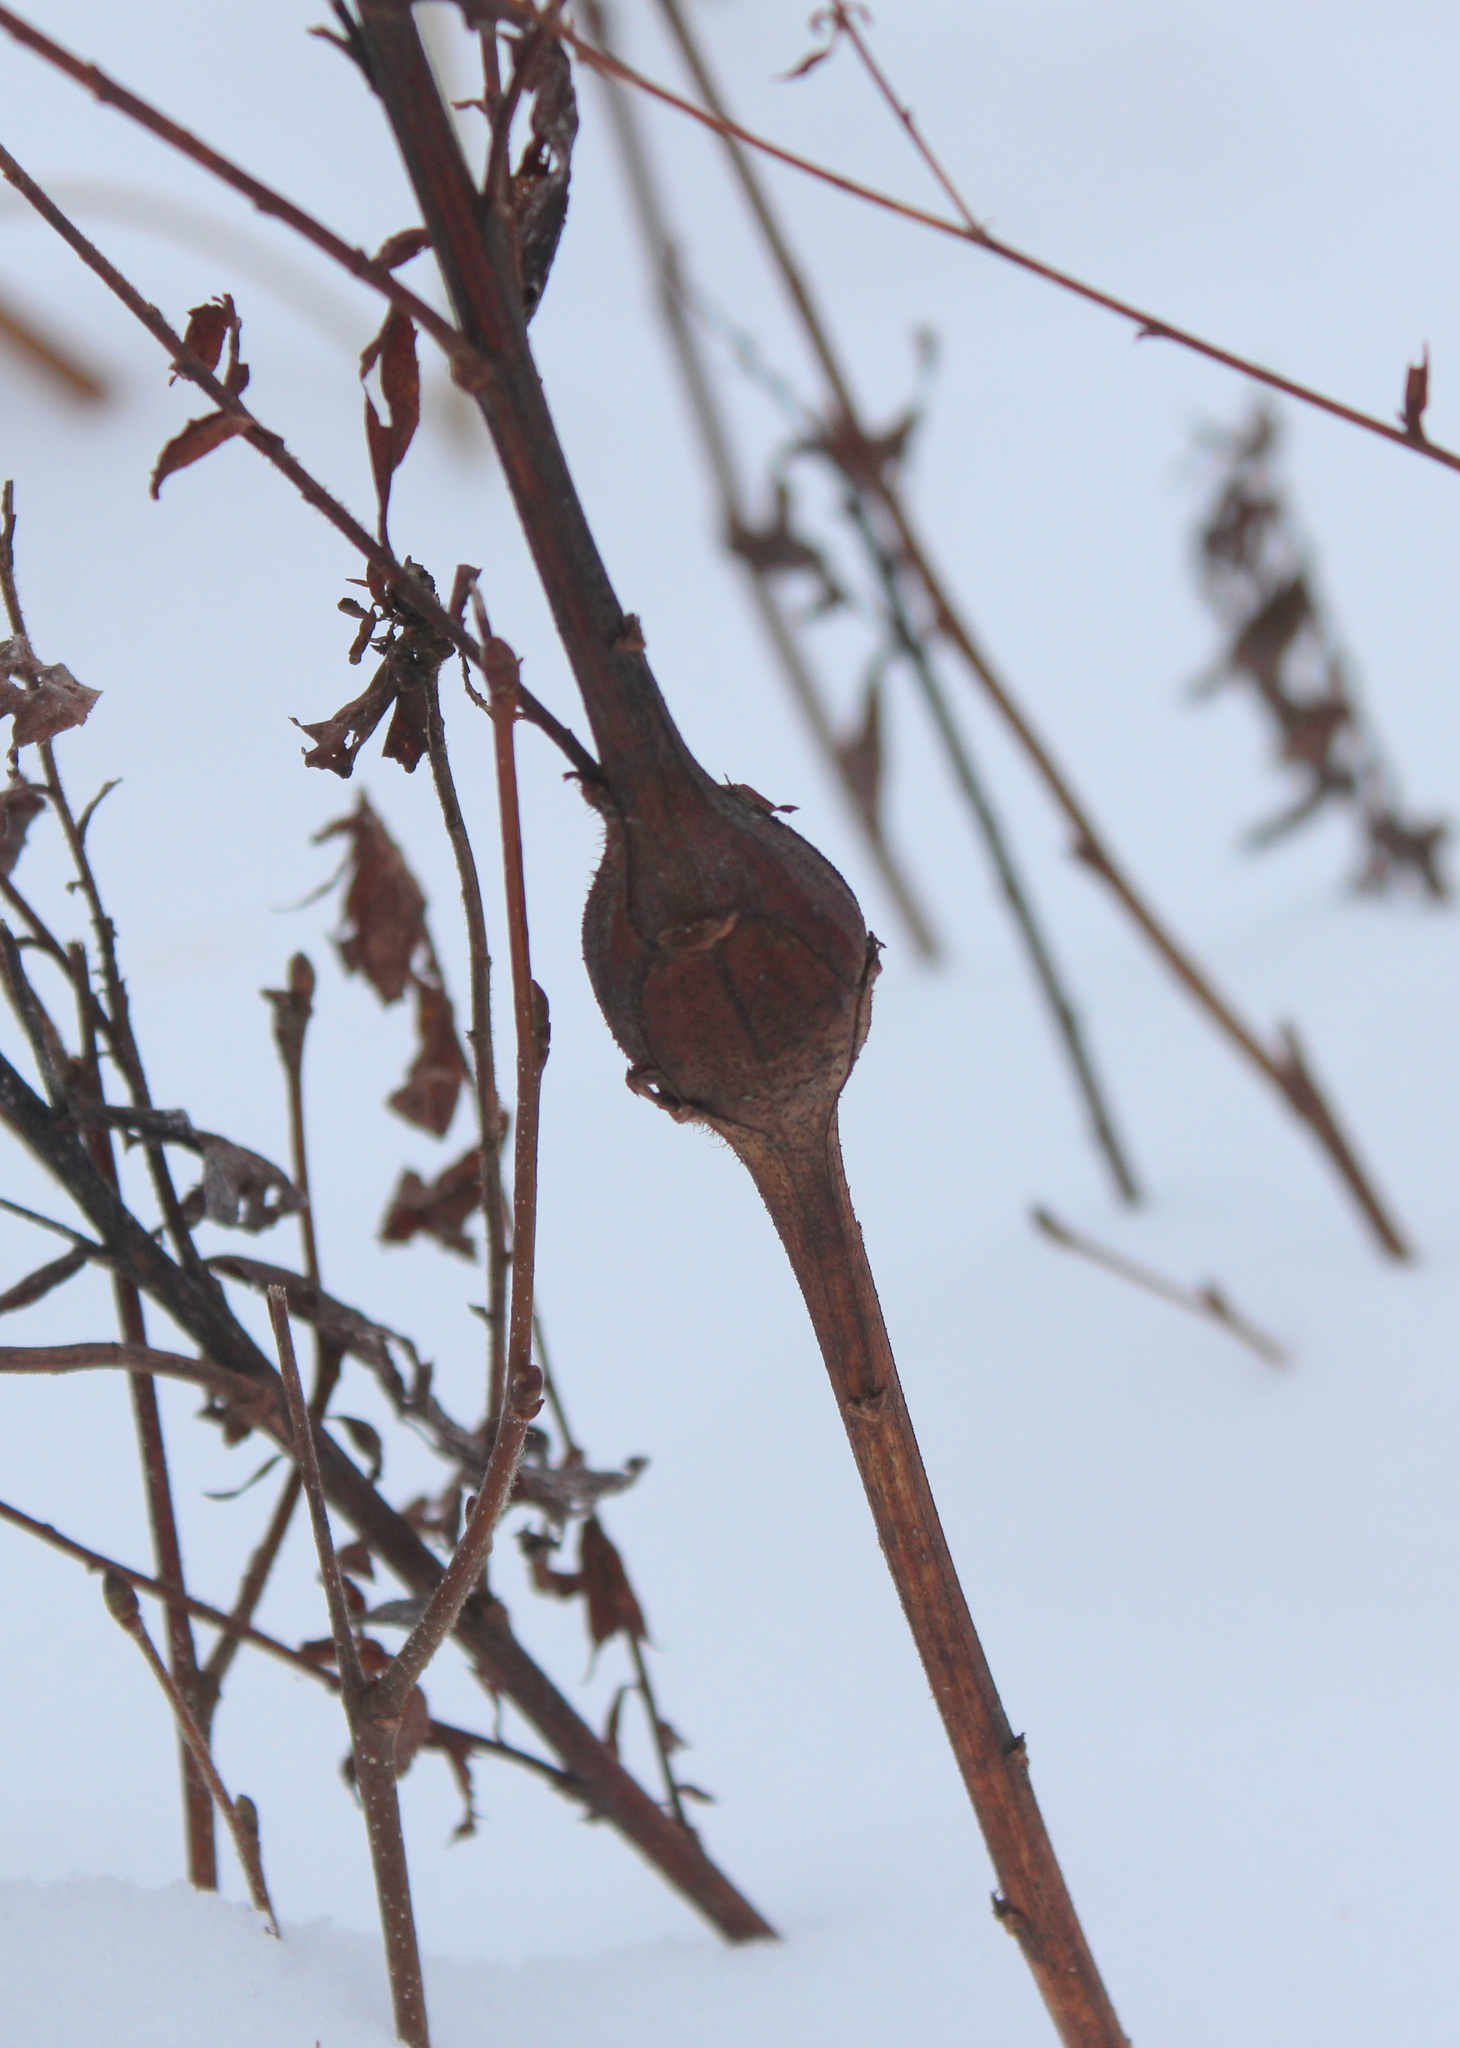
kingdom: Animalia
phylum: Arthropoda
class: Insecta
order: Diptera
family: Tephritidae
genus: Eurosta
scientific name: Eurosta solidaginis
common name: Goldenrod gall fly
